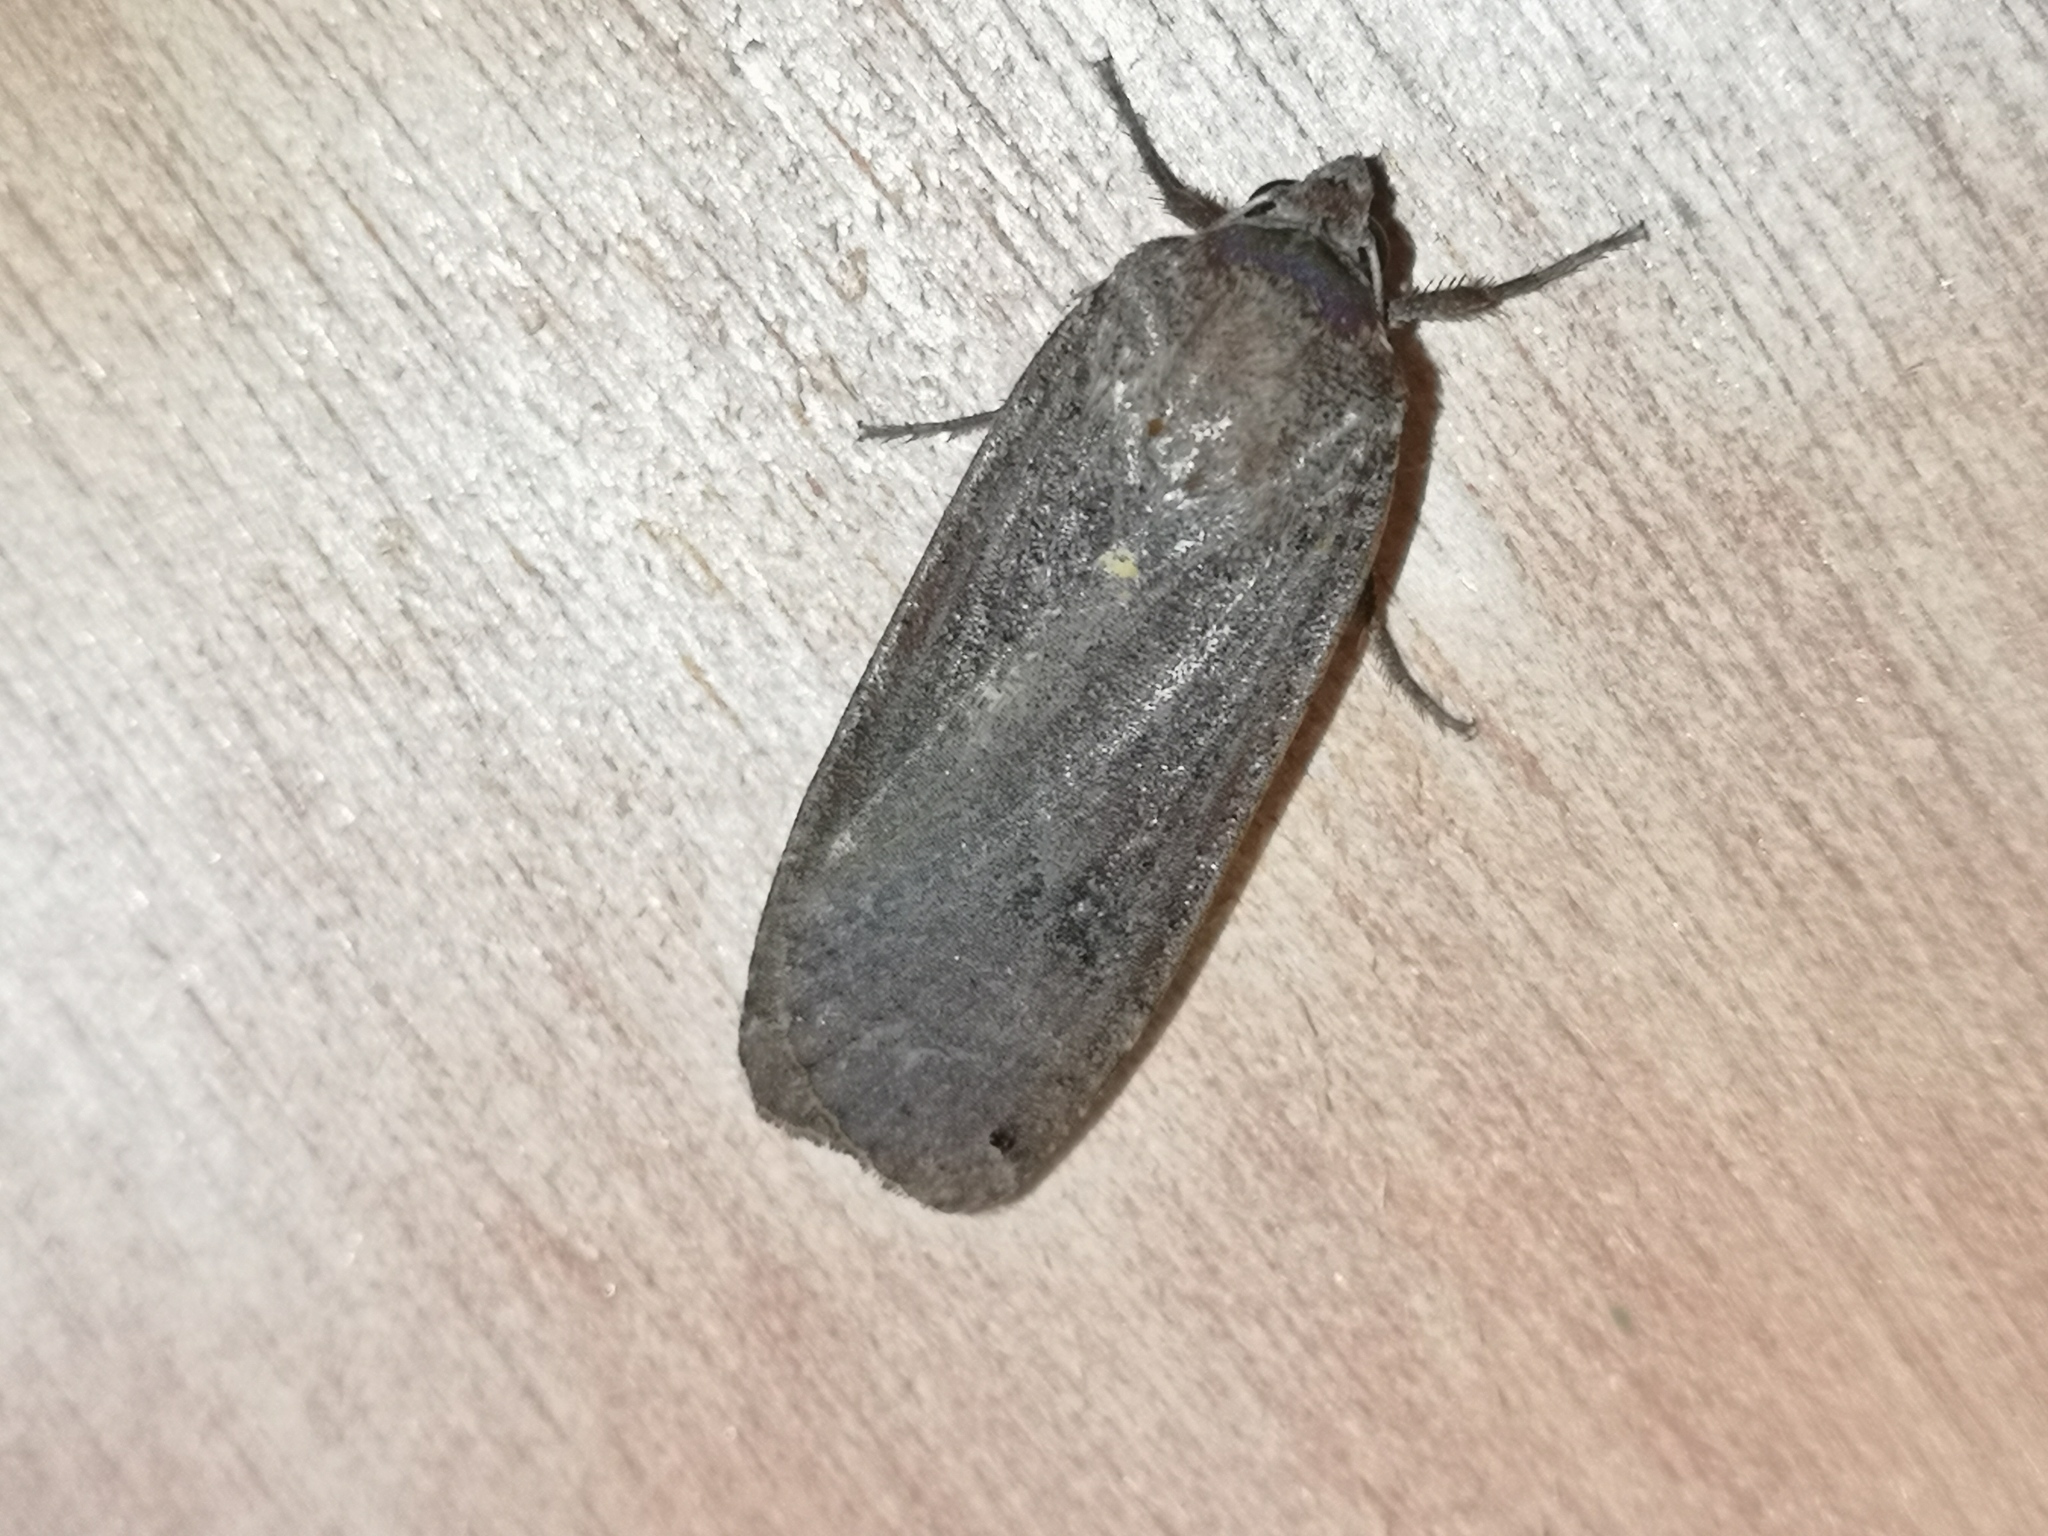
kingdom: Animalia
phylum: Arthropoda
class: Insecta
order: Lepidoptera
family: Noctuidae
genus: Noctua
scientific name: Noctua pronuba
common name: Large yellow underwing
